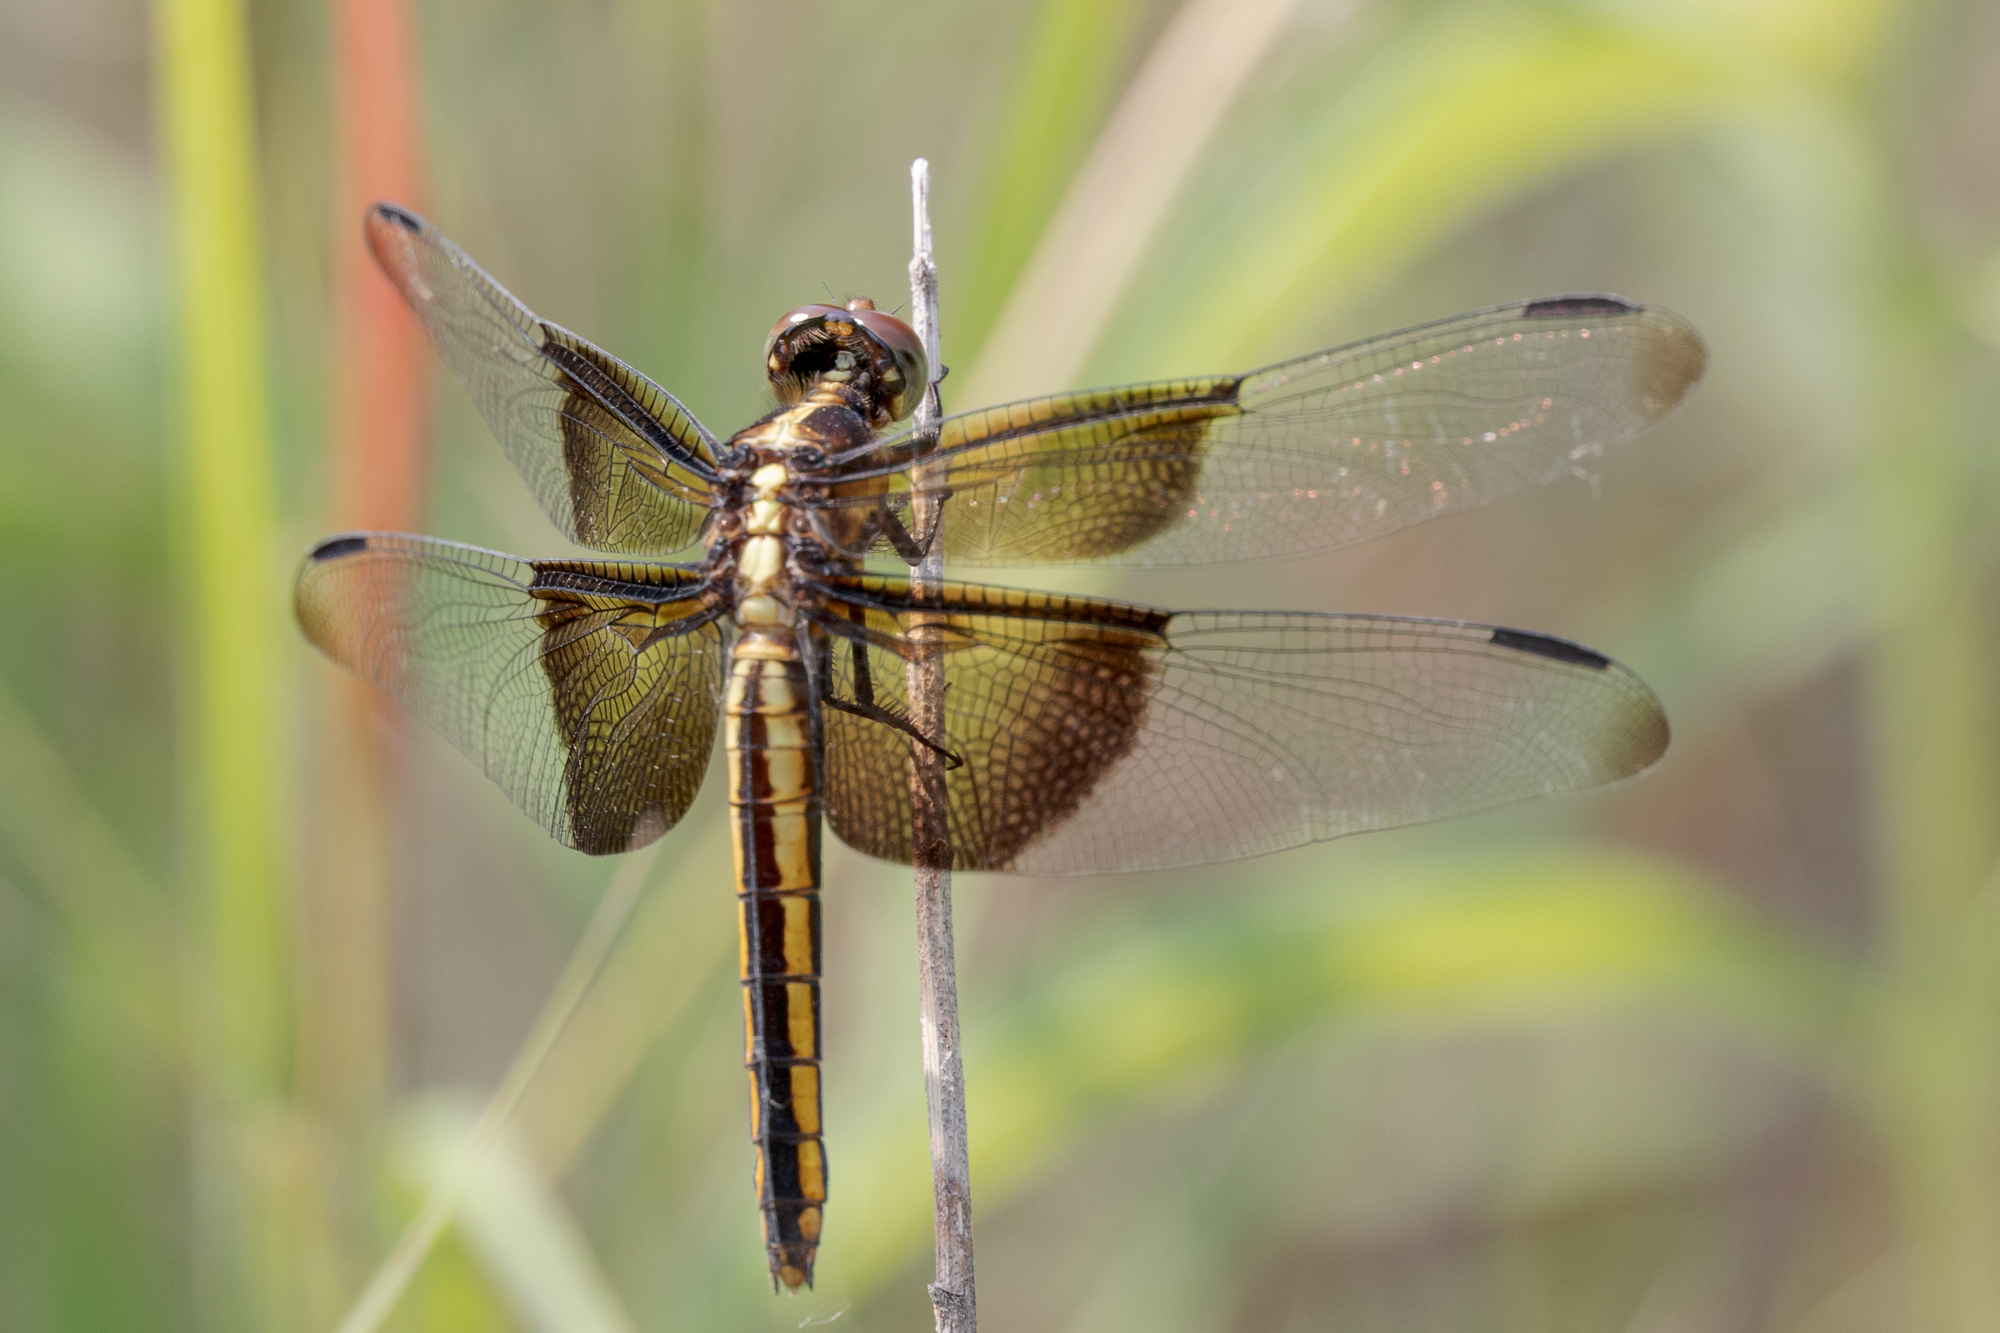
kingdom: Animalia
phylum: Arthropoda
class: Insecta
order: Odonata
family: Libellulidae
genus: Libellula
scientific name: Libellula luctuosa
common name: Widow skimmer
